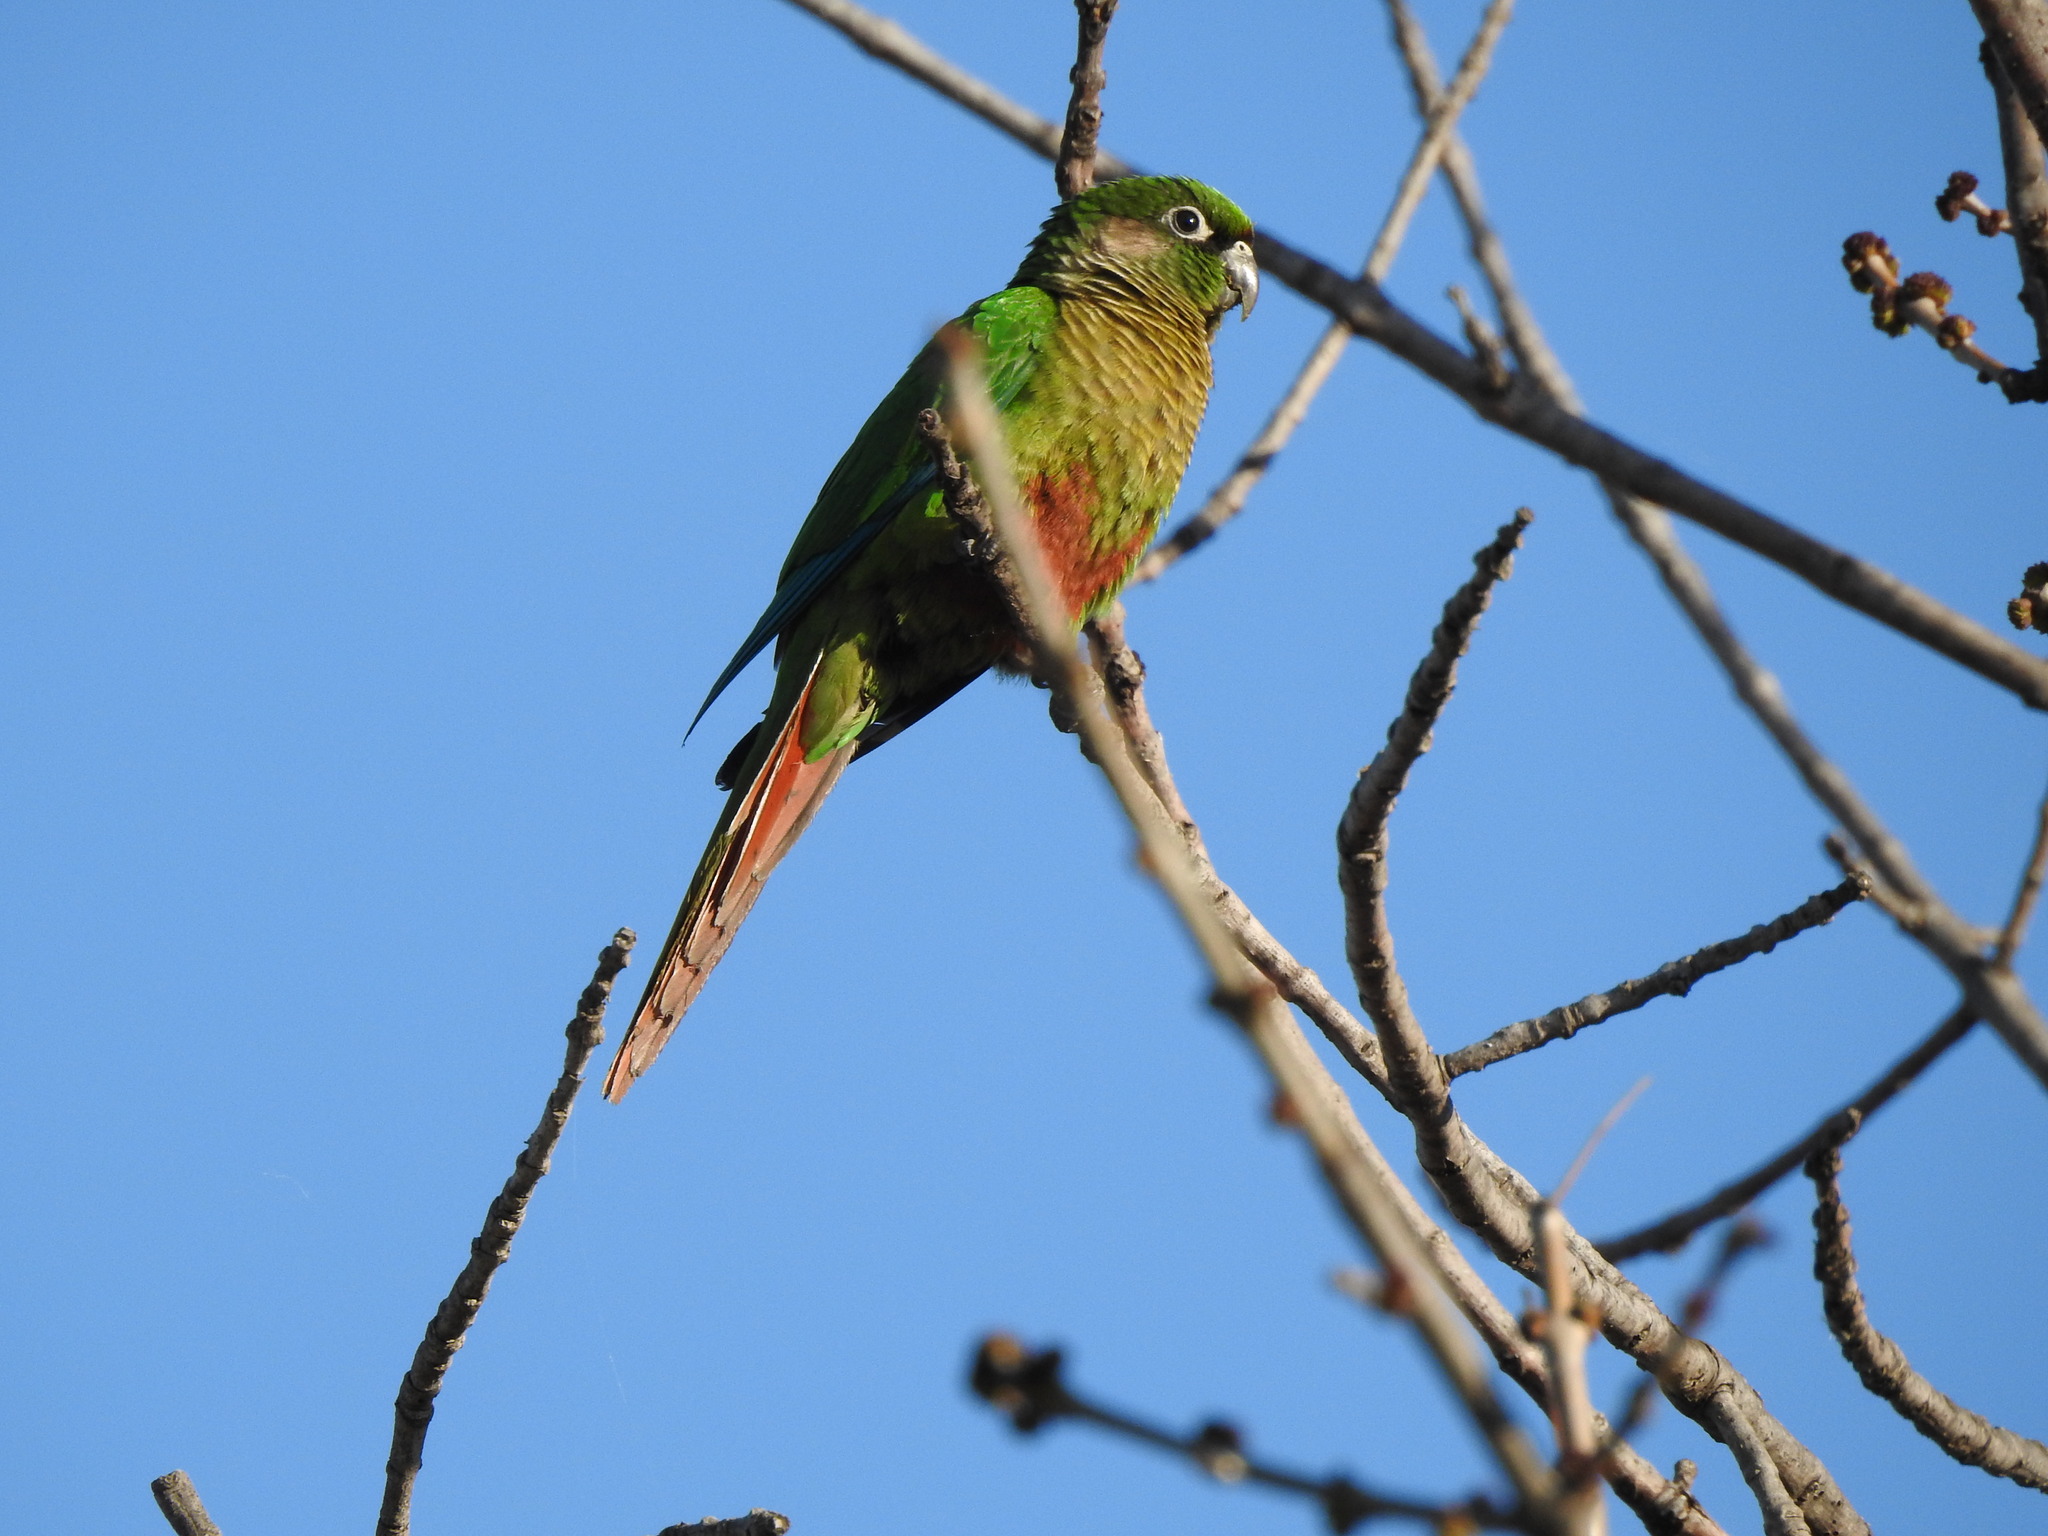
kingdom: Animalia
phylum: Chordata
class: Aves
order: Psittaciformes
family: Psittacidae
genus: Pyrrhura
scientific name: Pyrrhura frontalis
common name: Maroon-bellied parakeet
